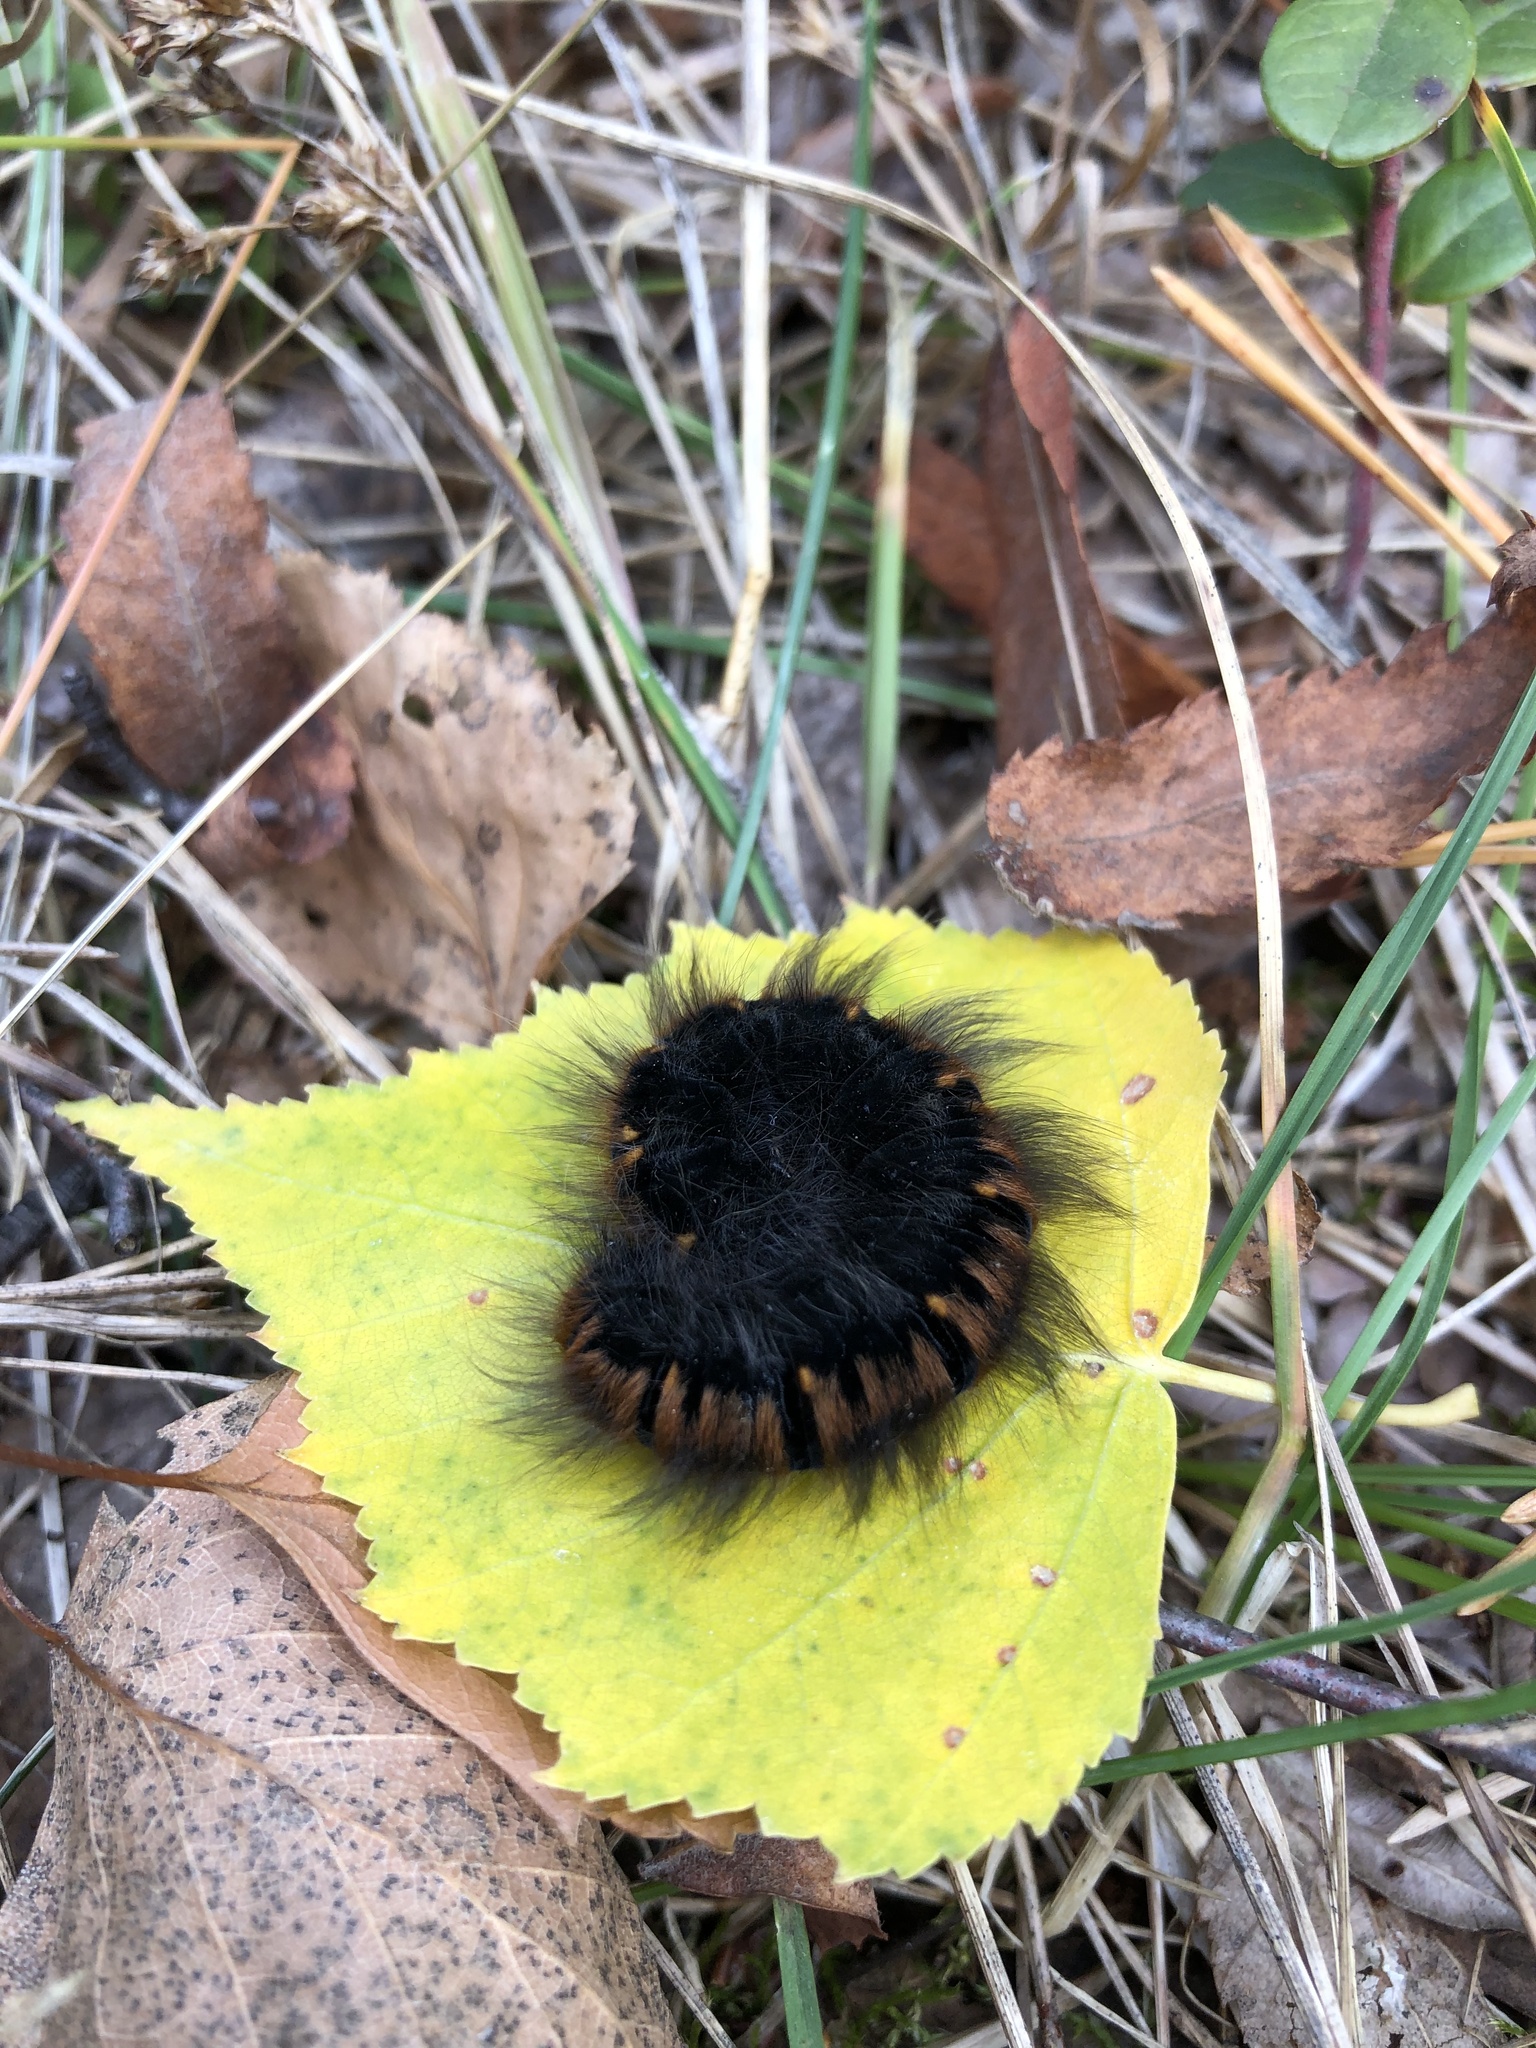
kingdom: Animalia
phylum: Arthropoda
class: Insecta
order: Lepidoptera
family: Lasiocampidae
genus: Macrothylacia
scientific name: Macrothylacia rubi
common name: Fox moth
